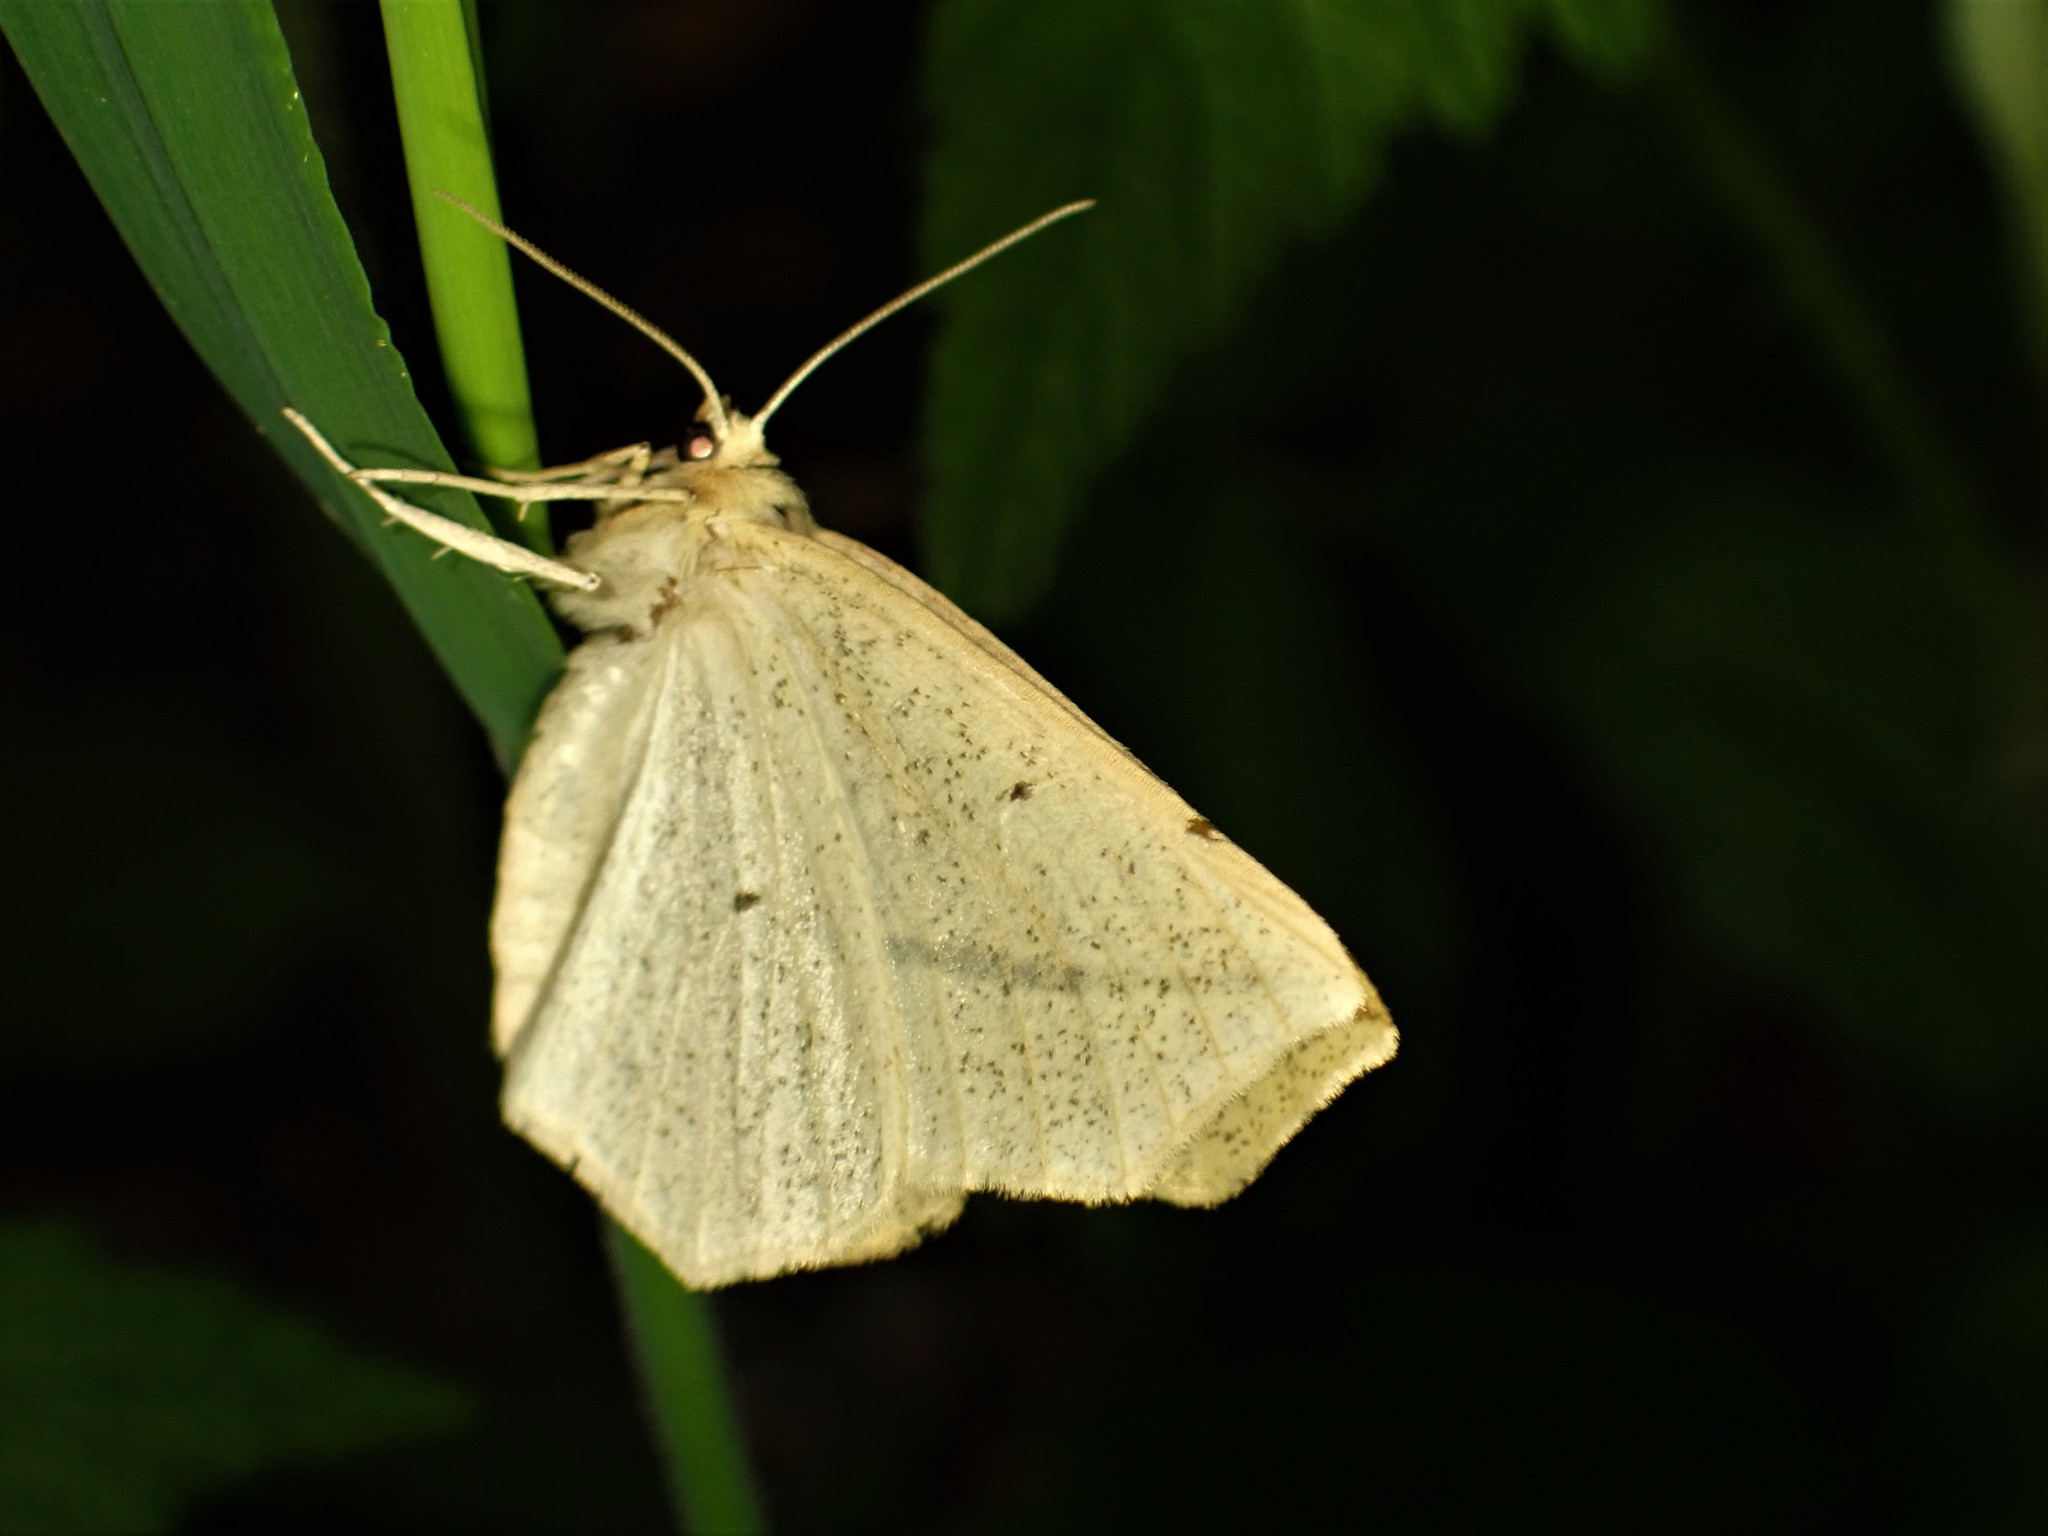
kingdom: Animalia
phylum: Arthropoda
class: Insecta
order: Lepidoptera
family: Geometridae
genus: Tetracis
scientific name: Tetracis crocallata
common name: Yellow slant-line
